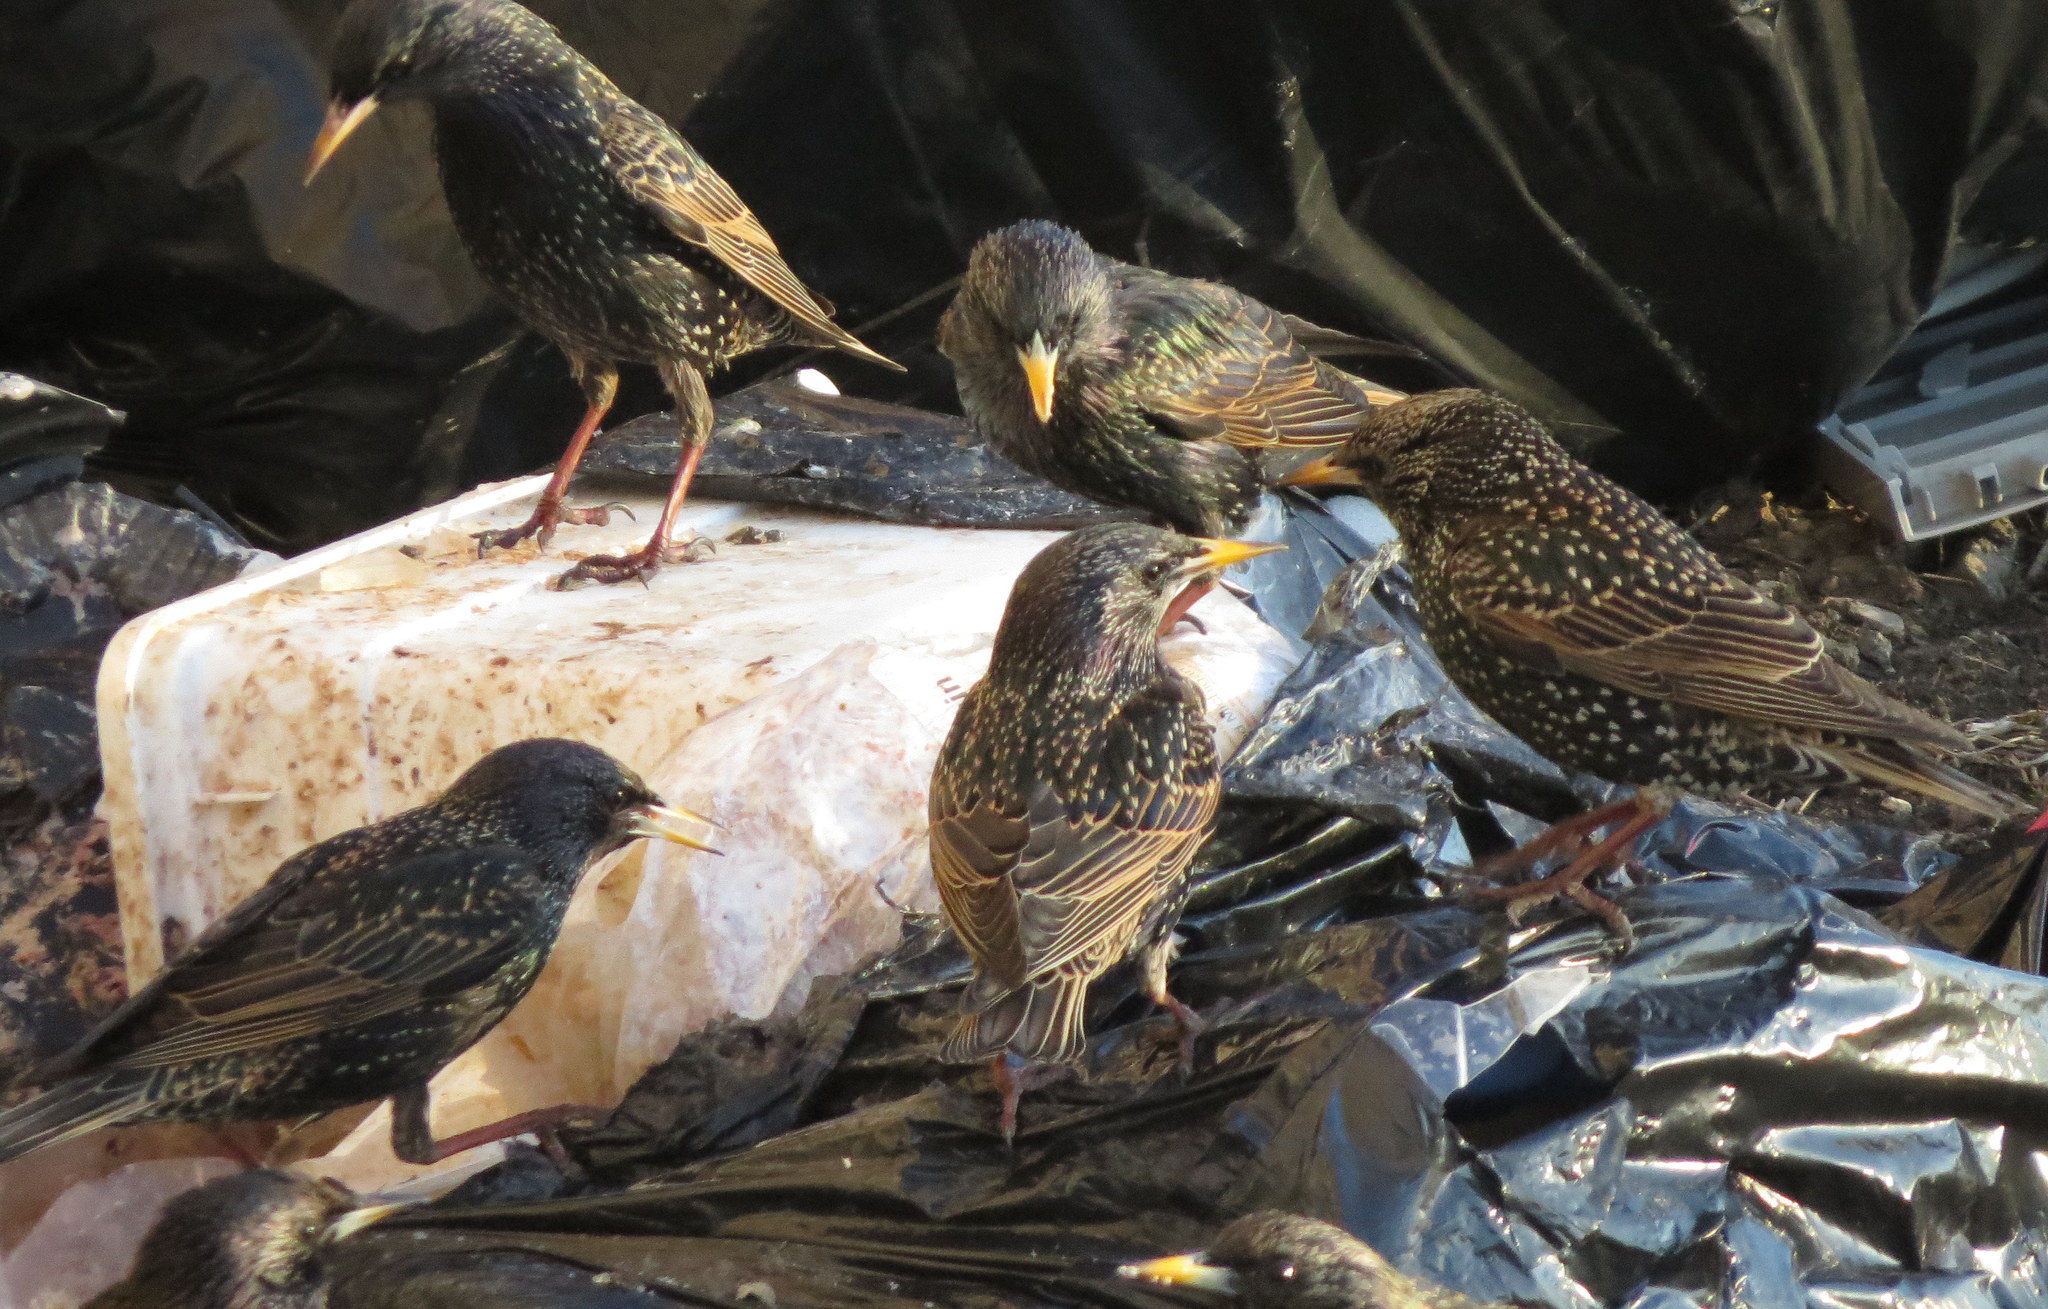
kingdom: Animalia
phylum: Chordata
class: Aves
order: Passeriformes
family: Sturnidae
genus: Sturnus
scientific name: Sturnus vulgaris
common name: Common starling
